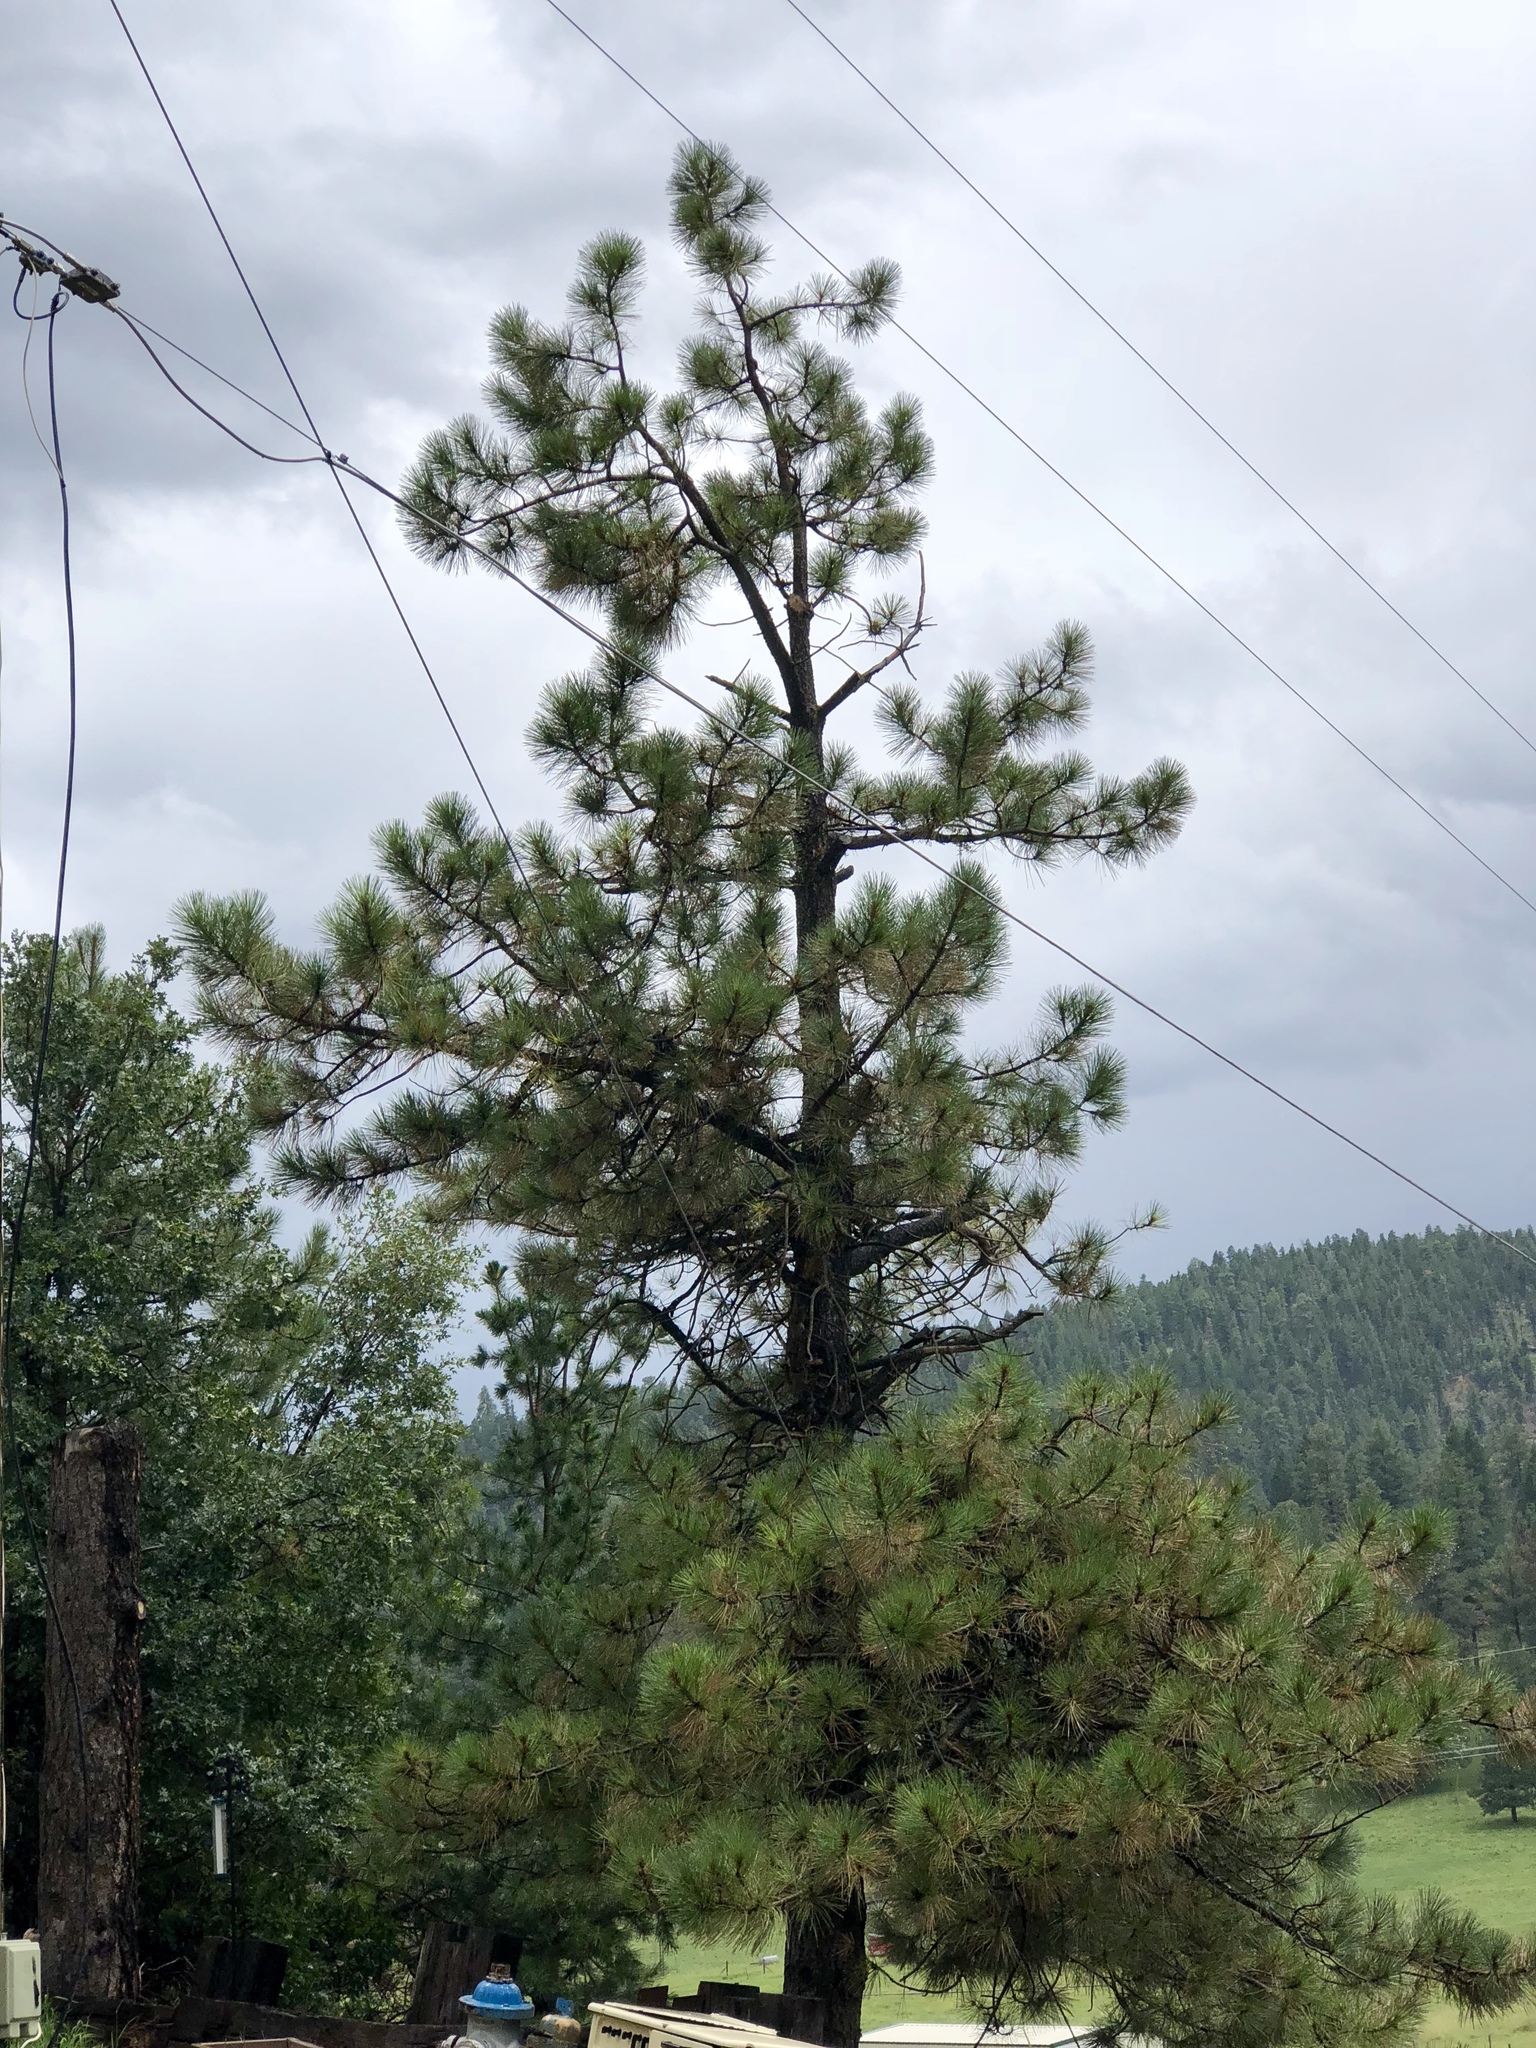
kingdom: Plantae
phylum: Tracheophyta
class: Pinopsida
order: Pinales
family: Pinaceae
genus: Pinus
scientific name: Pinus ponderosa
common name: Western yellow-pine
